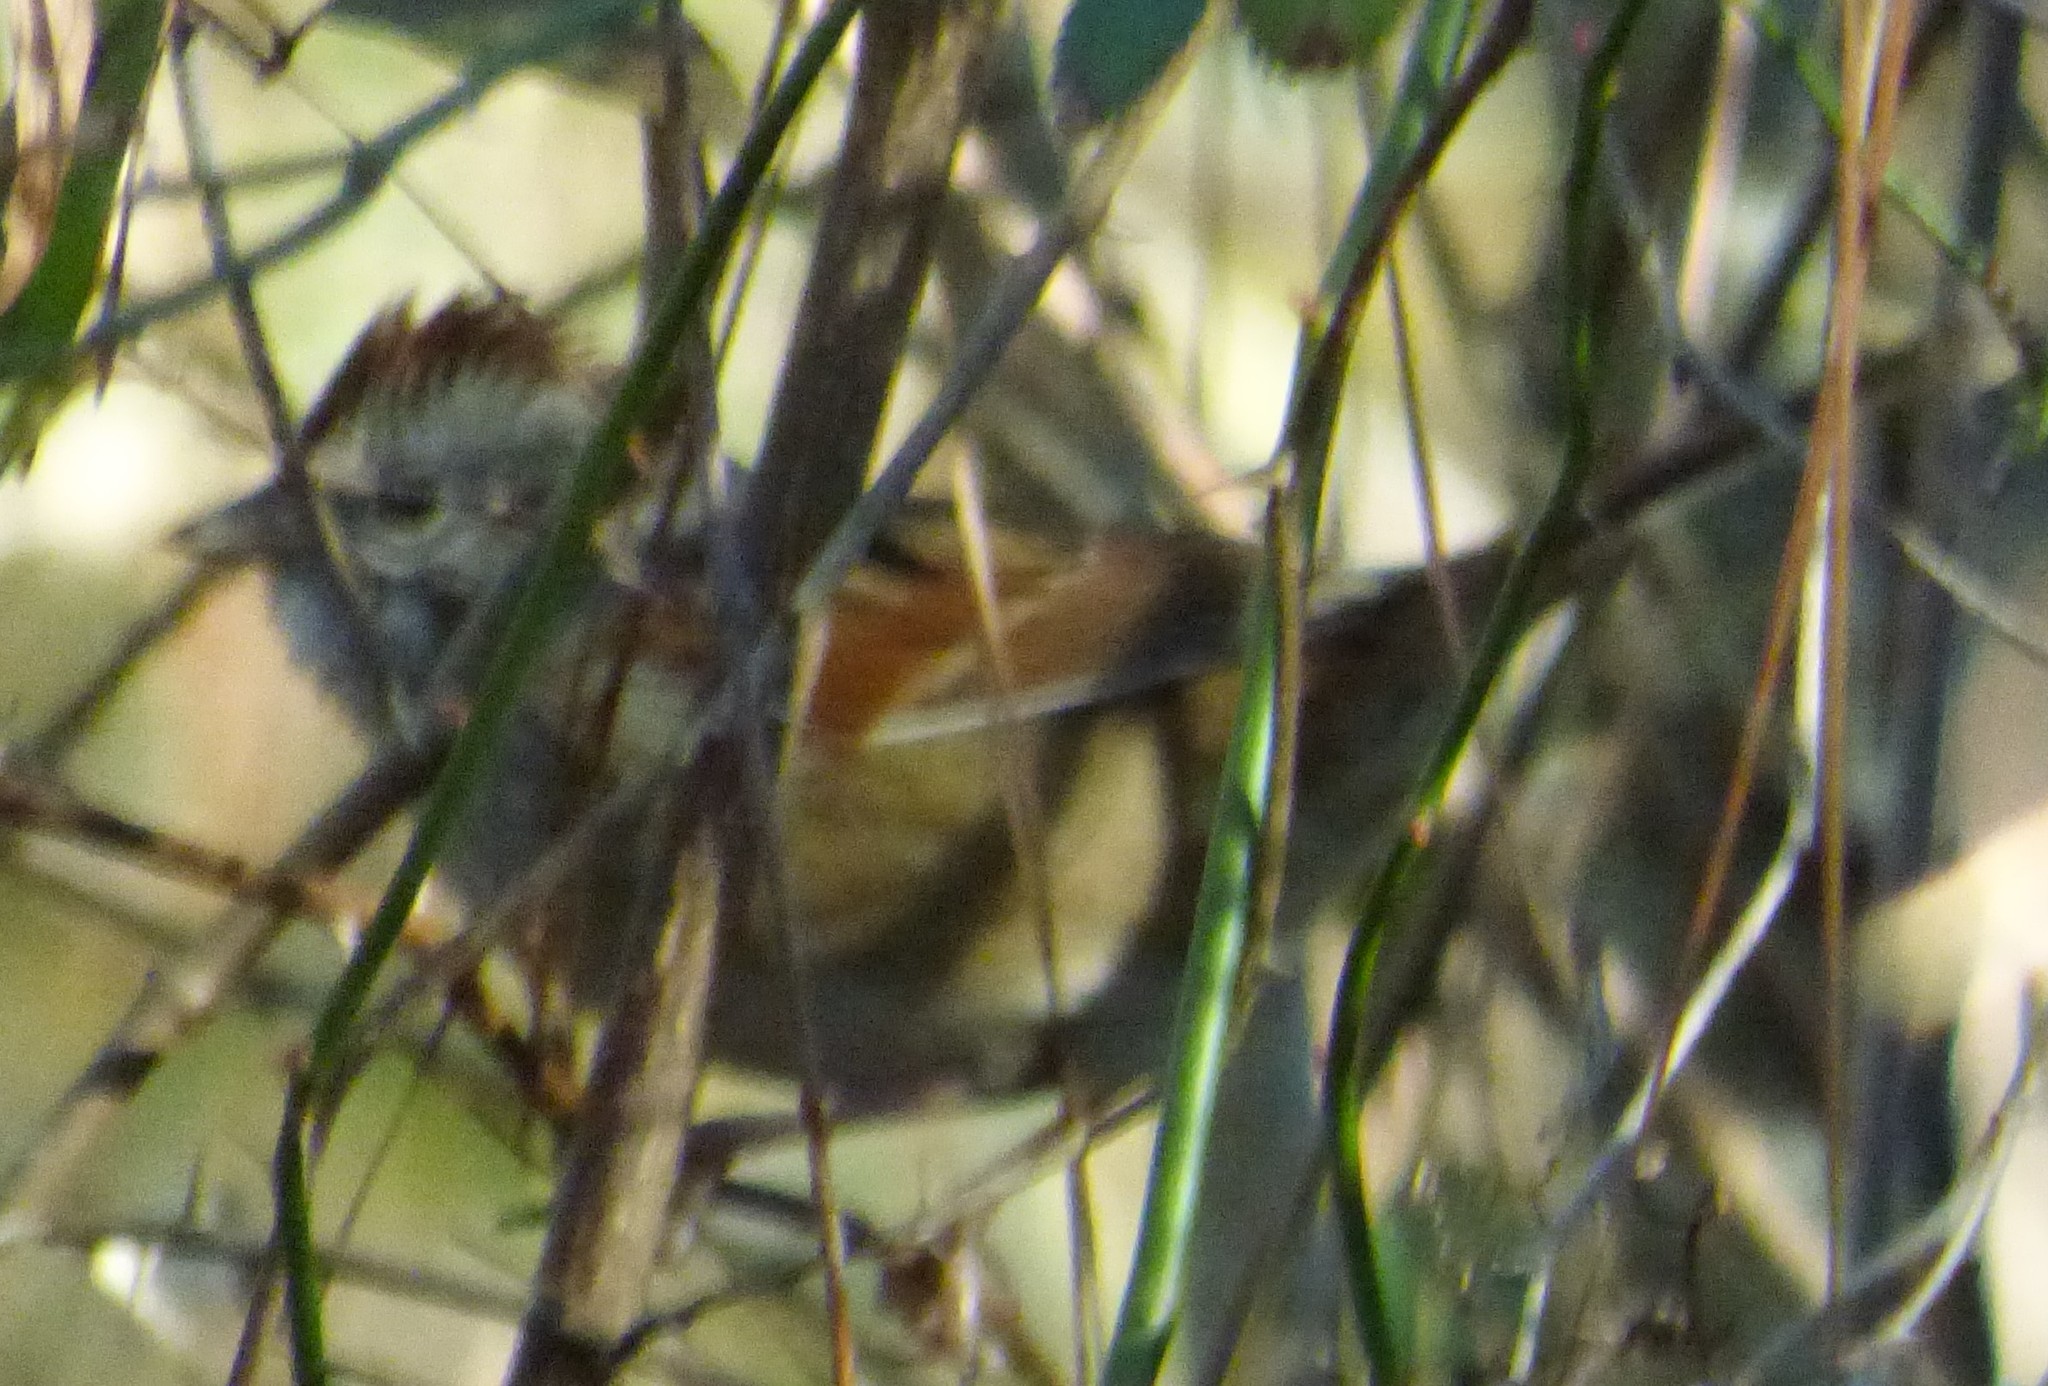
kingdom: Animalia
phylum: Chordata
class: Aves
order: Passeriformes
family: Passerellidae
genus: Melospiza
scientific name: Melospiza georgiana
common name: Swamp sparrow
